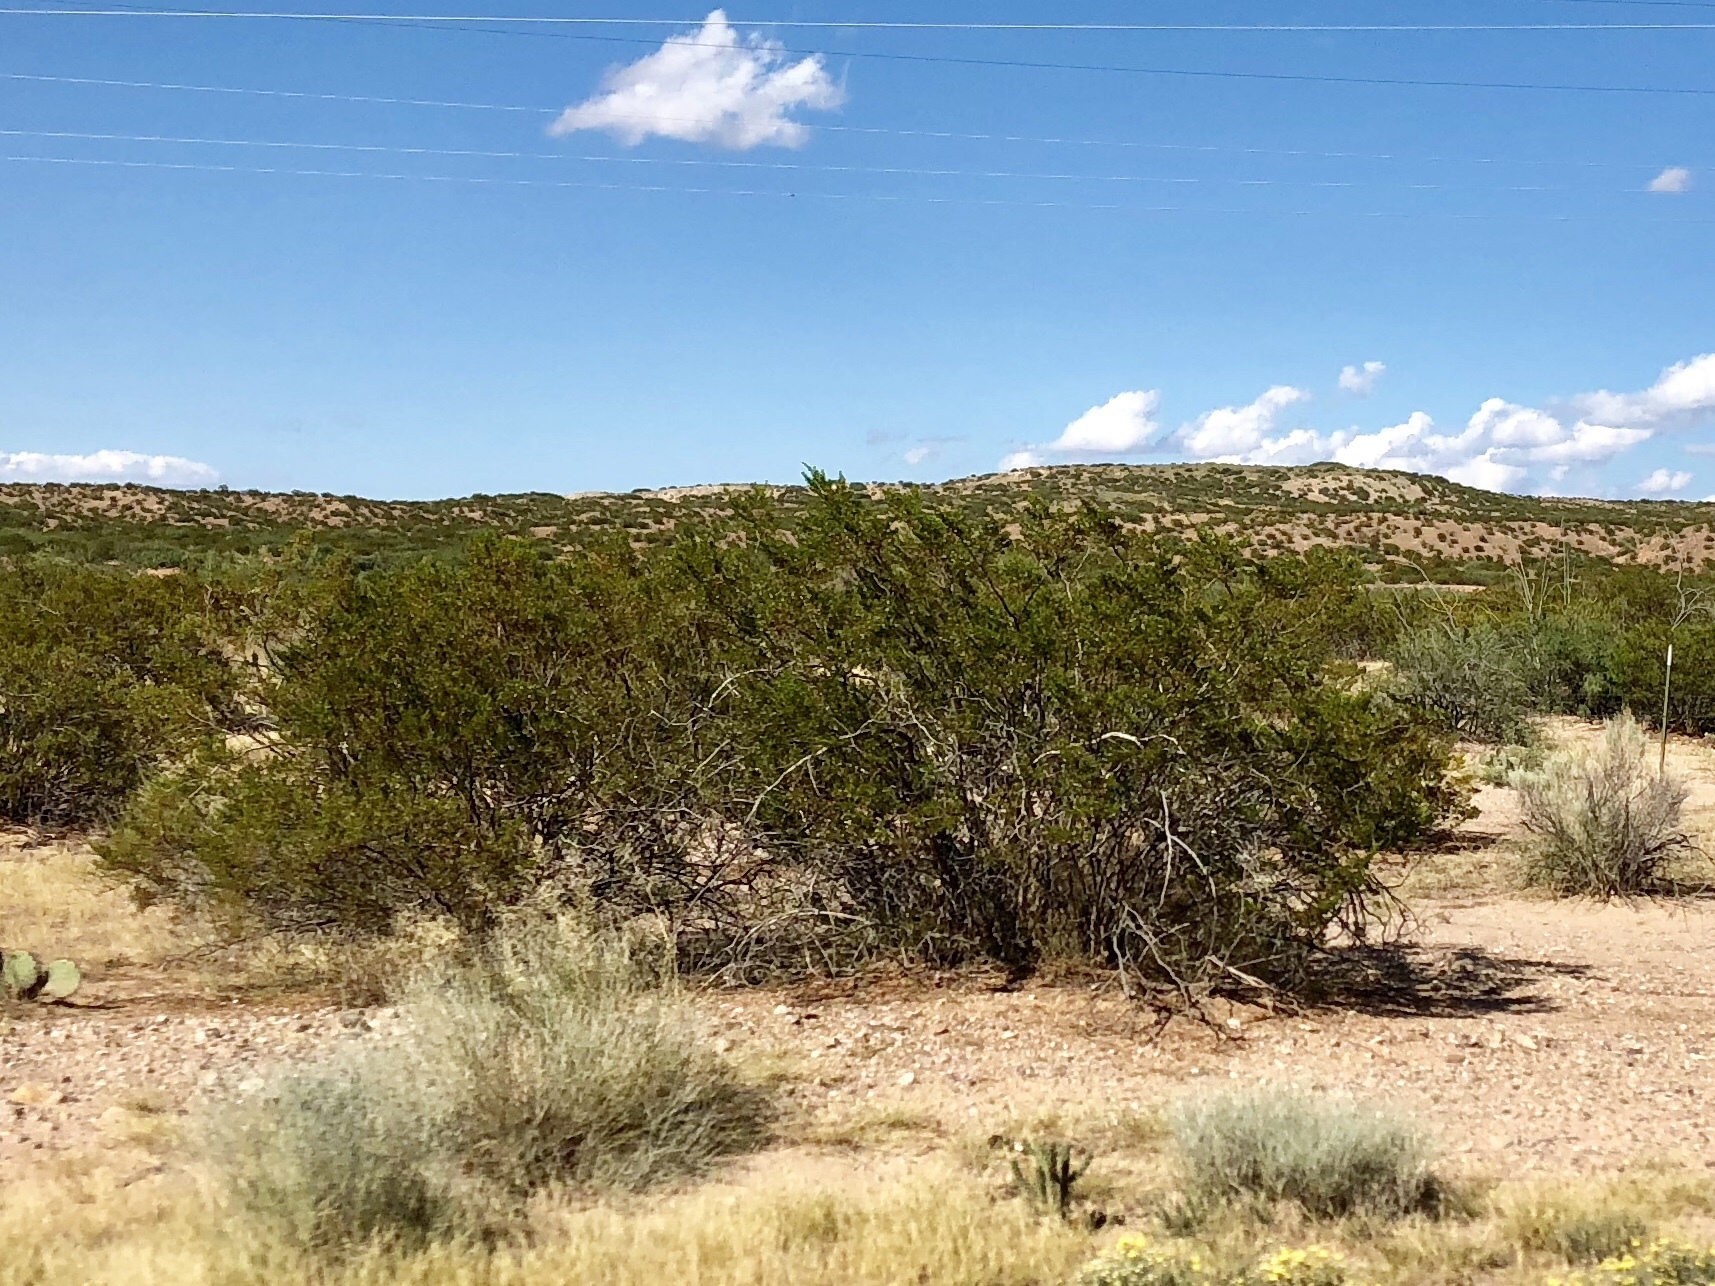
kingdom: Plantae
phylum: Tracheophyta
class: Magnoliopsida
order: Zygophyllales
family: Zygophyllaceae
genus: Larrea
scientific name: Larrea tridentata
